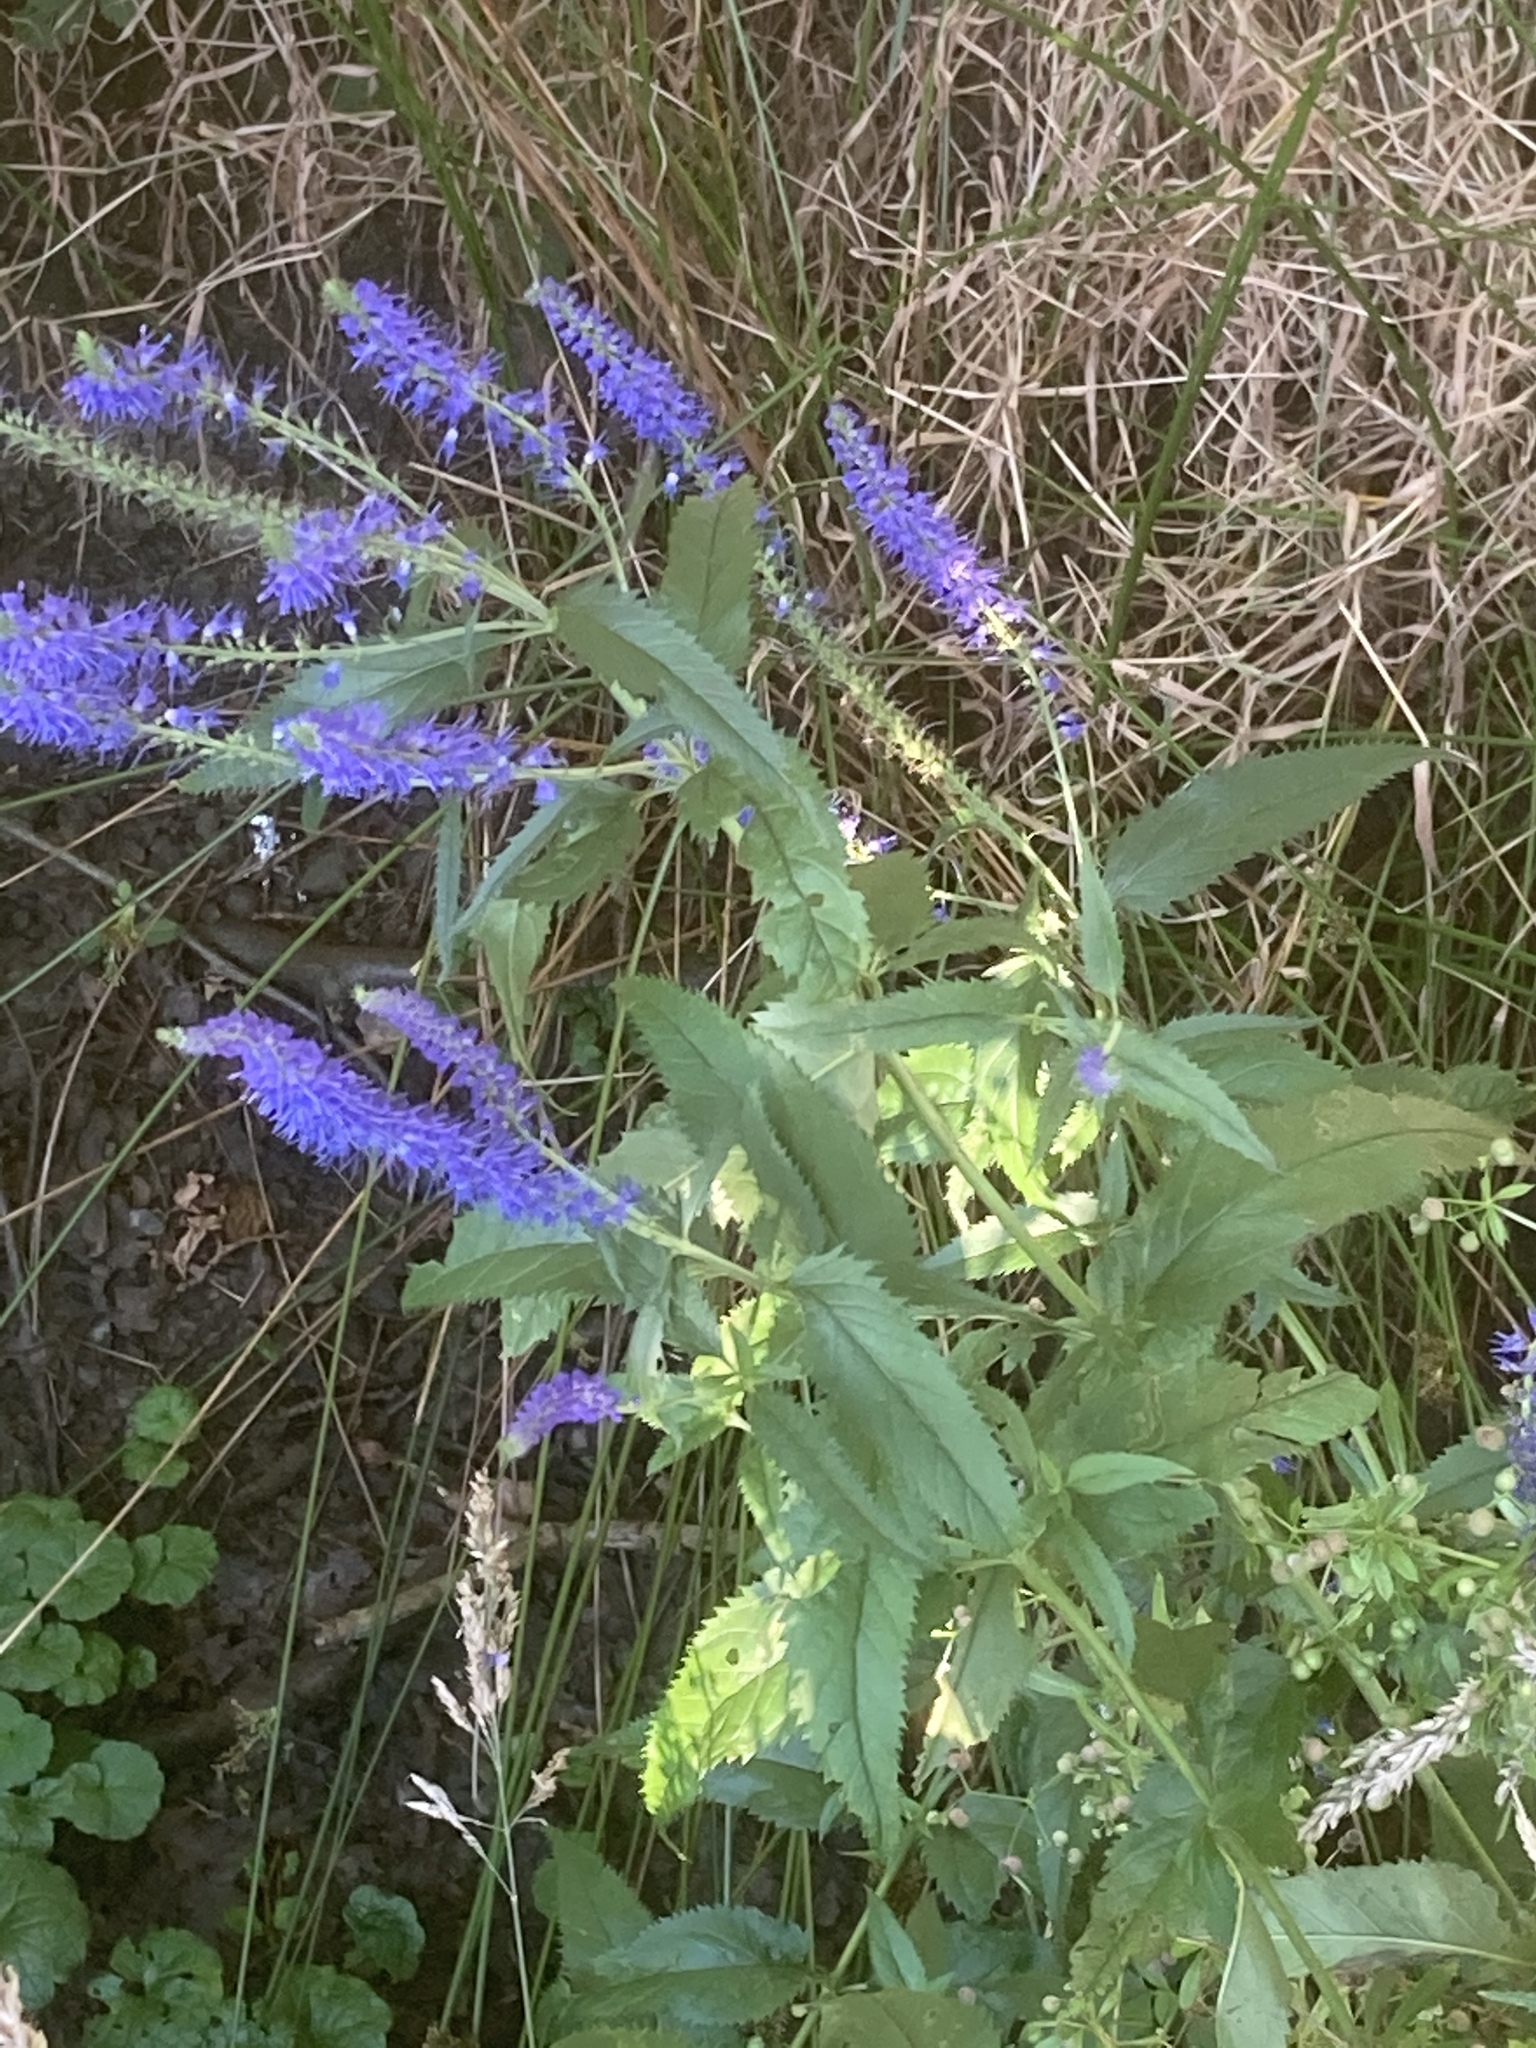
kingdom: Plantae
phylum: Tracheophyta
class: Magnoliopsida
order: Lamiales
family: Plantaginaceae
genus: Veronica
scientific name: Veronica longifolia
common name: Garden speedwell
